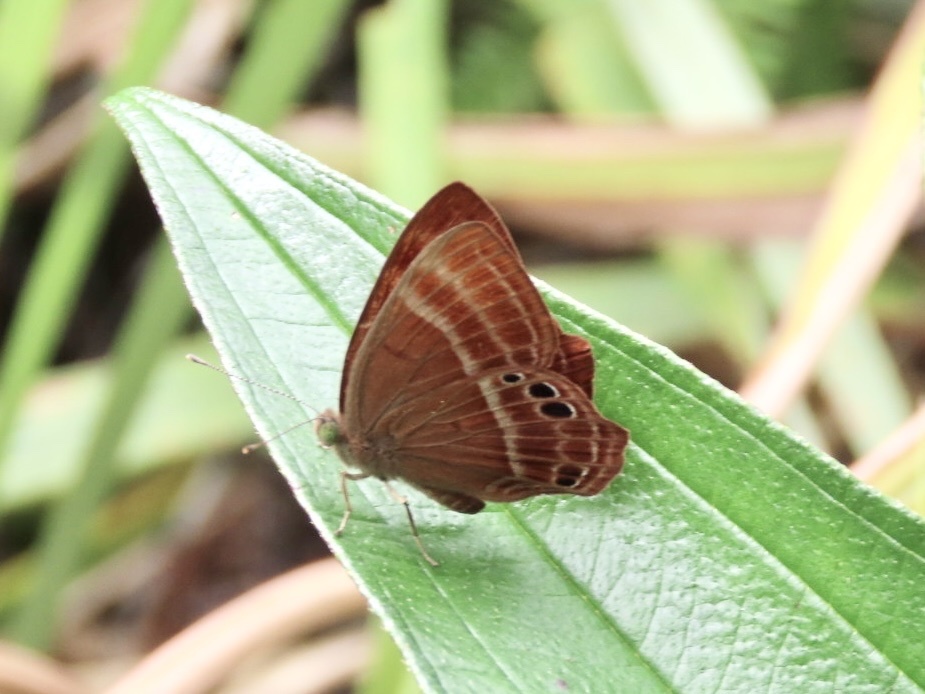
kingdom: Animalia
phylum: Arthropoda
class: Insecta
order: Lepidoptera
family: Lycaenidae
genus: Abisara
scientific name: Abisara echeria
